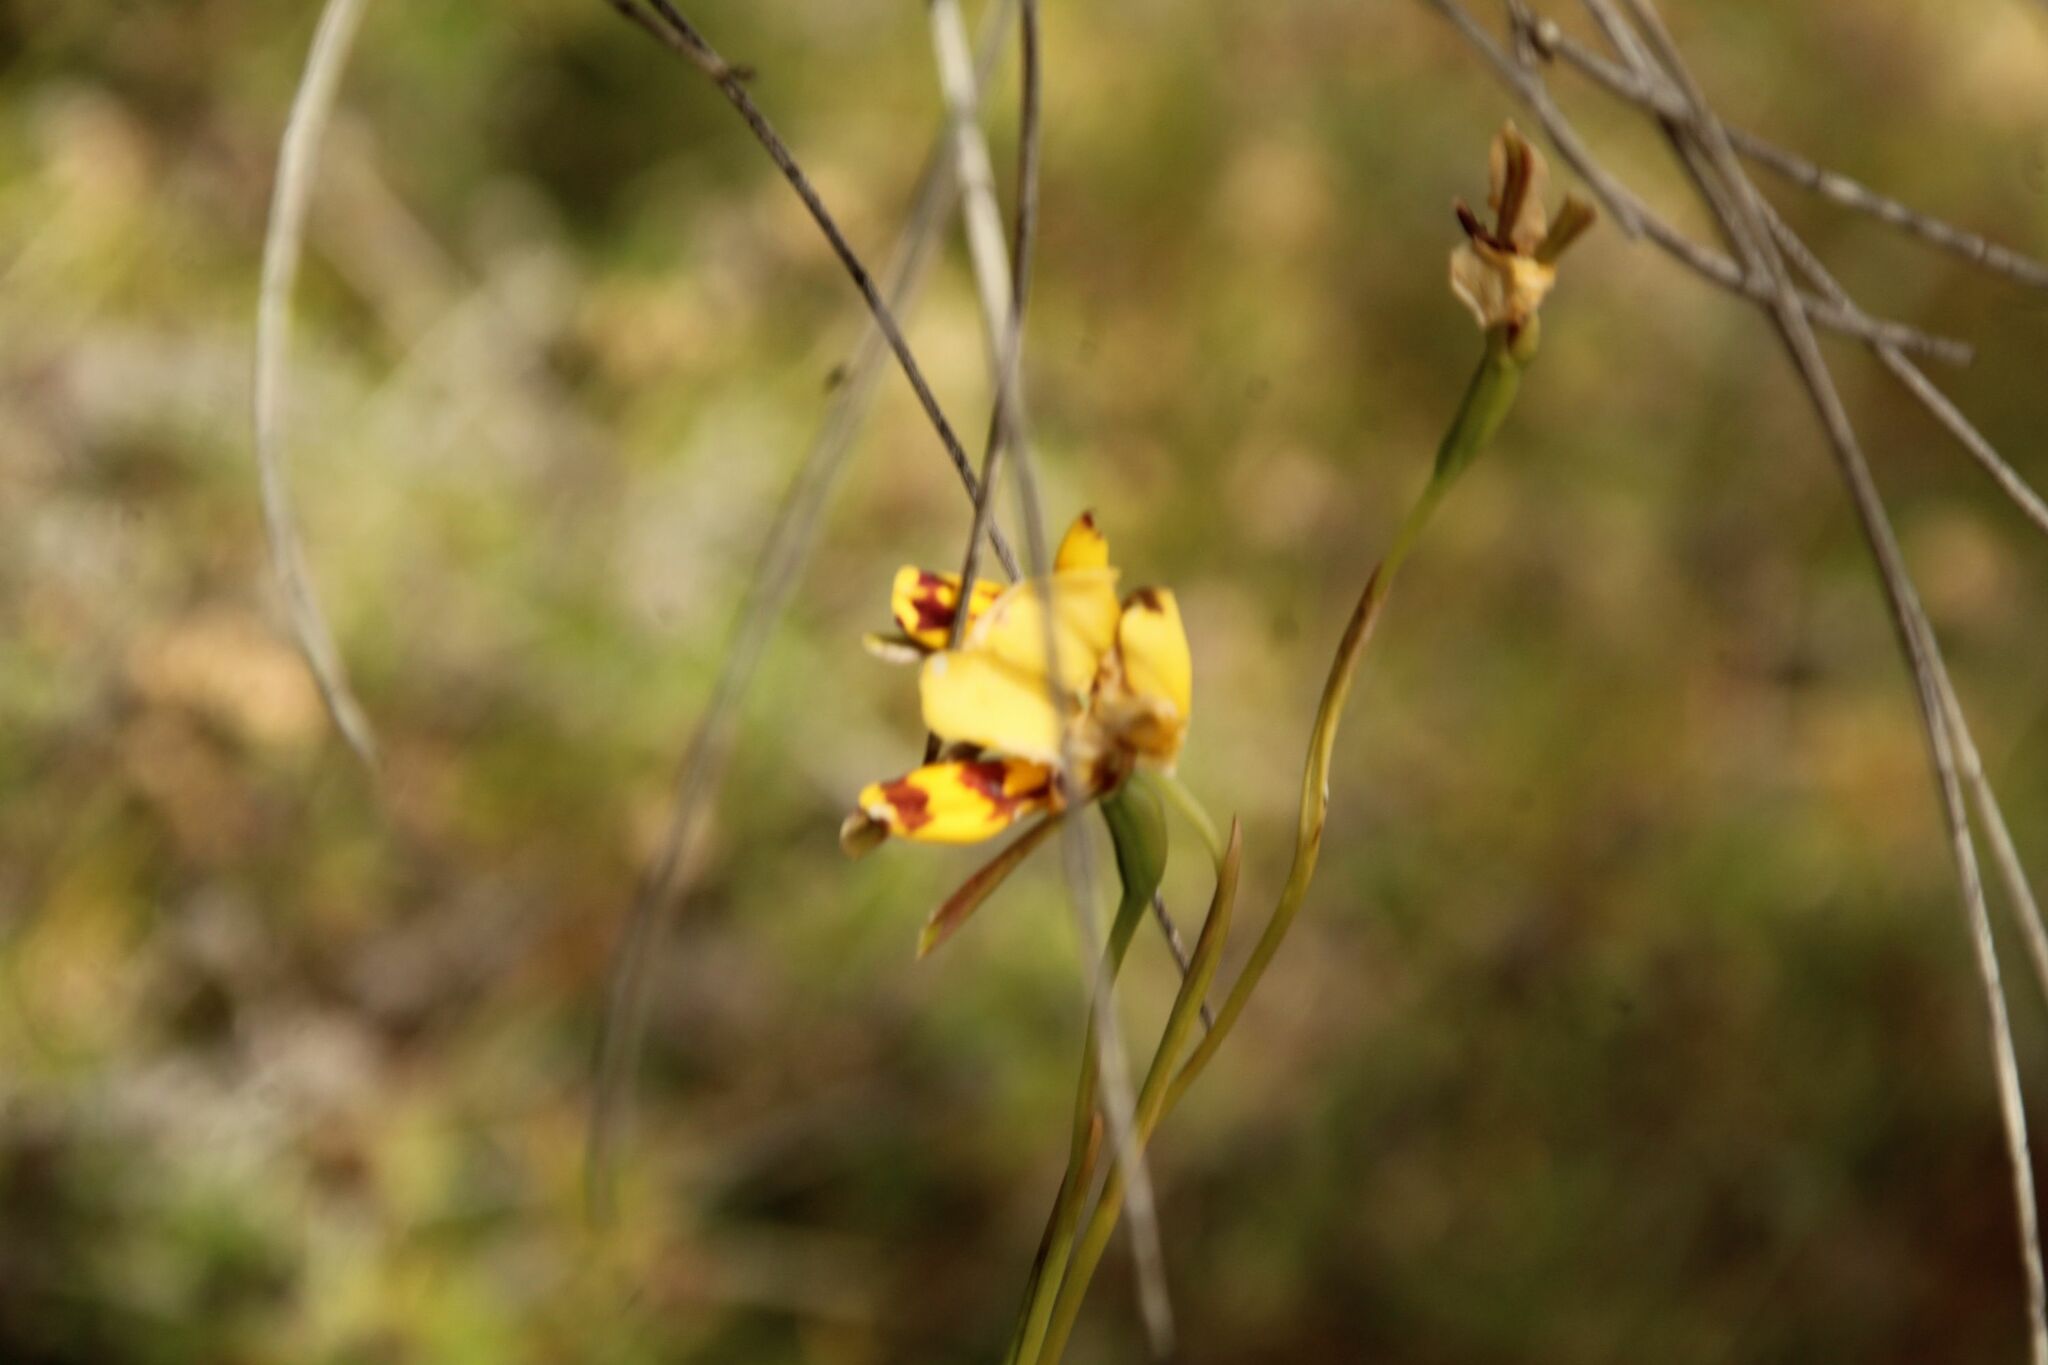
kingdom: Plantae
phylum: Tracheophyta
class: Liliopsida
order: Asparagales
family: Orchidaceae
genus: Diuris
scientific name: Diuris picta
